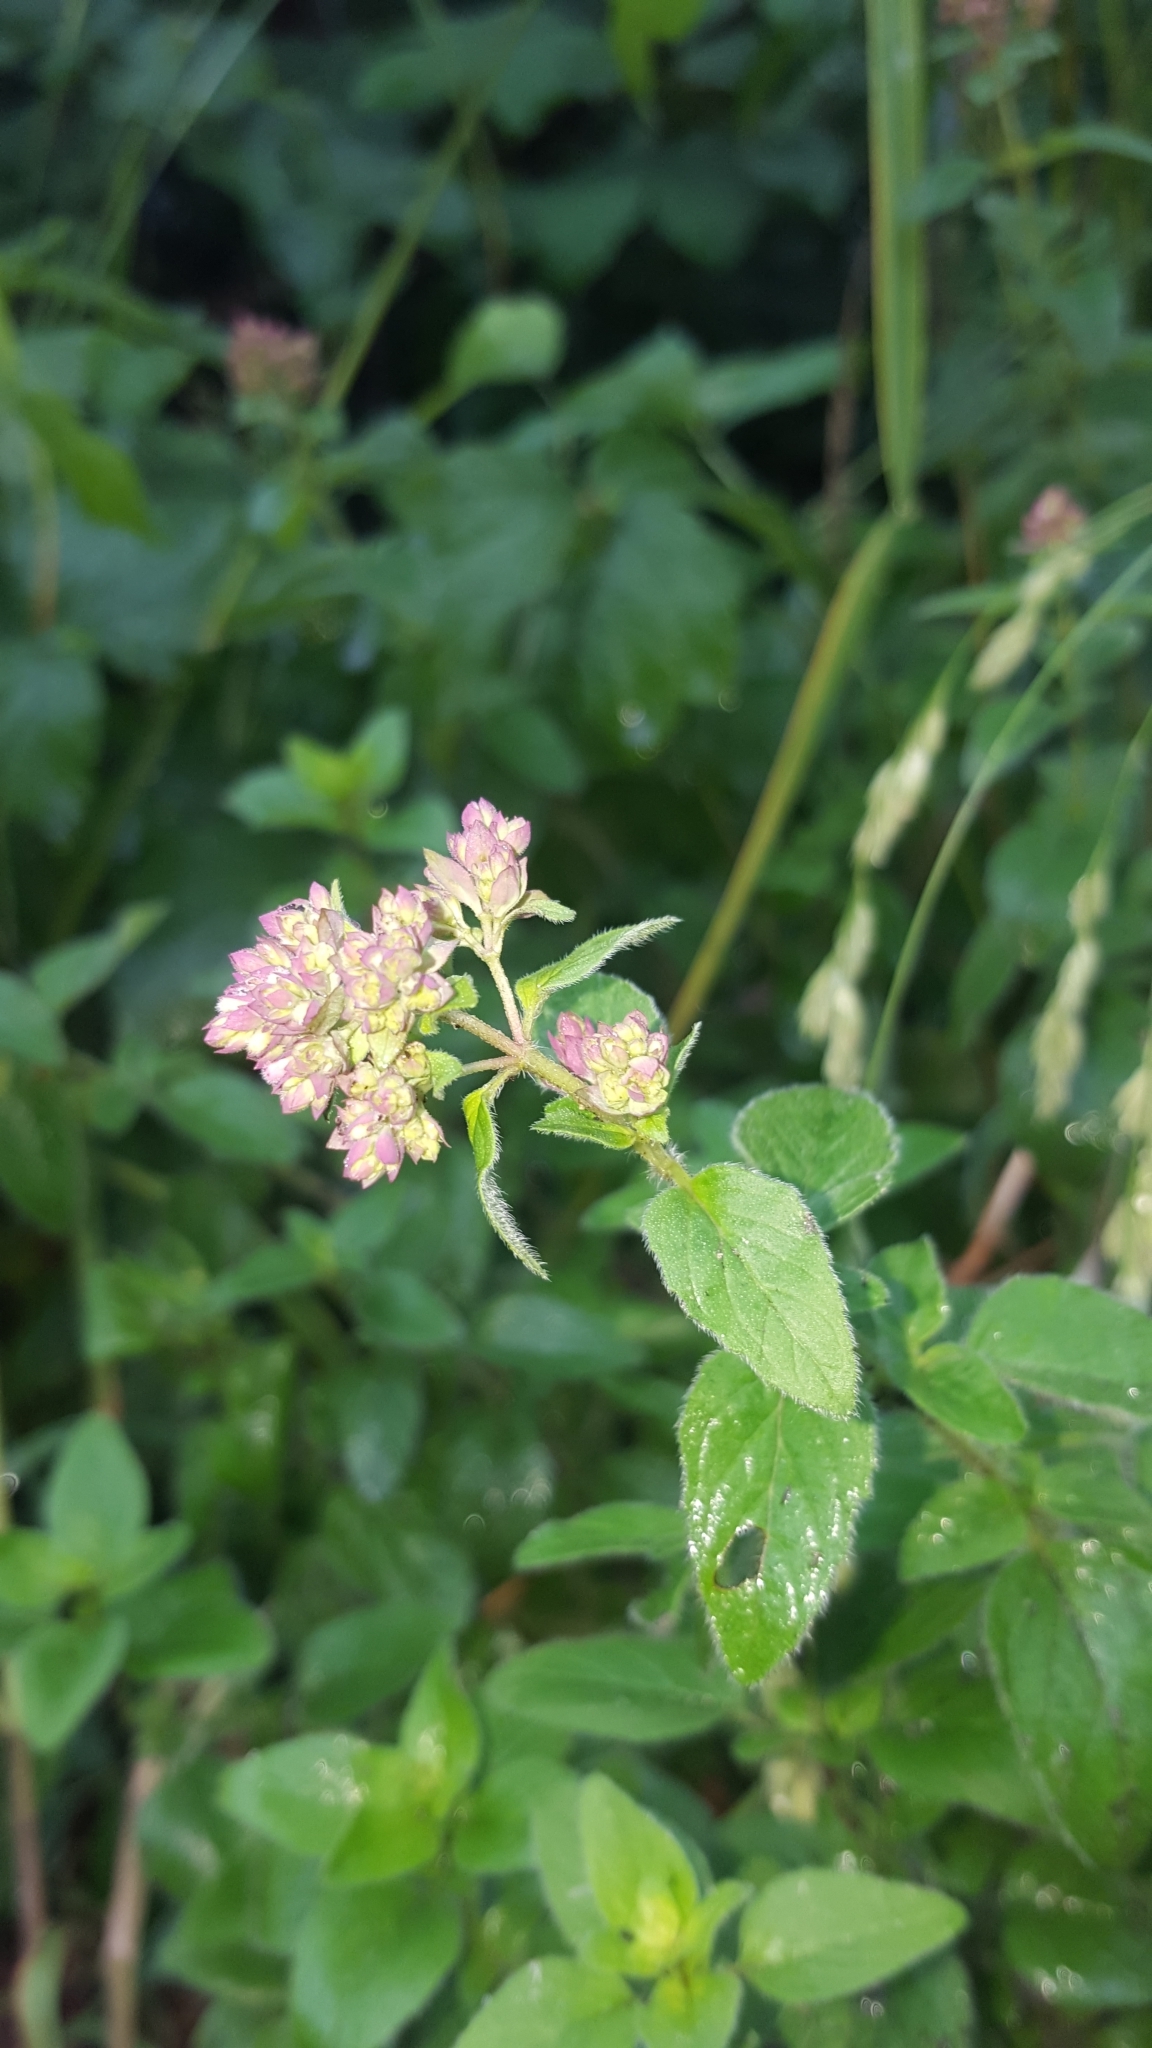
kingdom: Plantae
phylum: Tracheophyta
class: Magnoliopsida
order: Lamiales
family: Lamiaceae
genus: Origanum
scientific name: Origanum vulgare
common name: Wild marjoram
